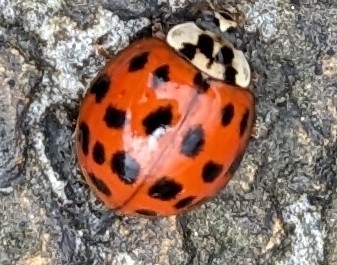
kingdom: Animalia
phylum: Arthropoda
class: Insecta
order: Coleoptera
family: Coccinellidae
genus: Harmonia
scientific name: Harmonia axyridis
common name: Harlequin ladybird
